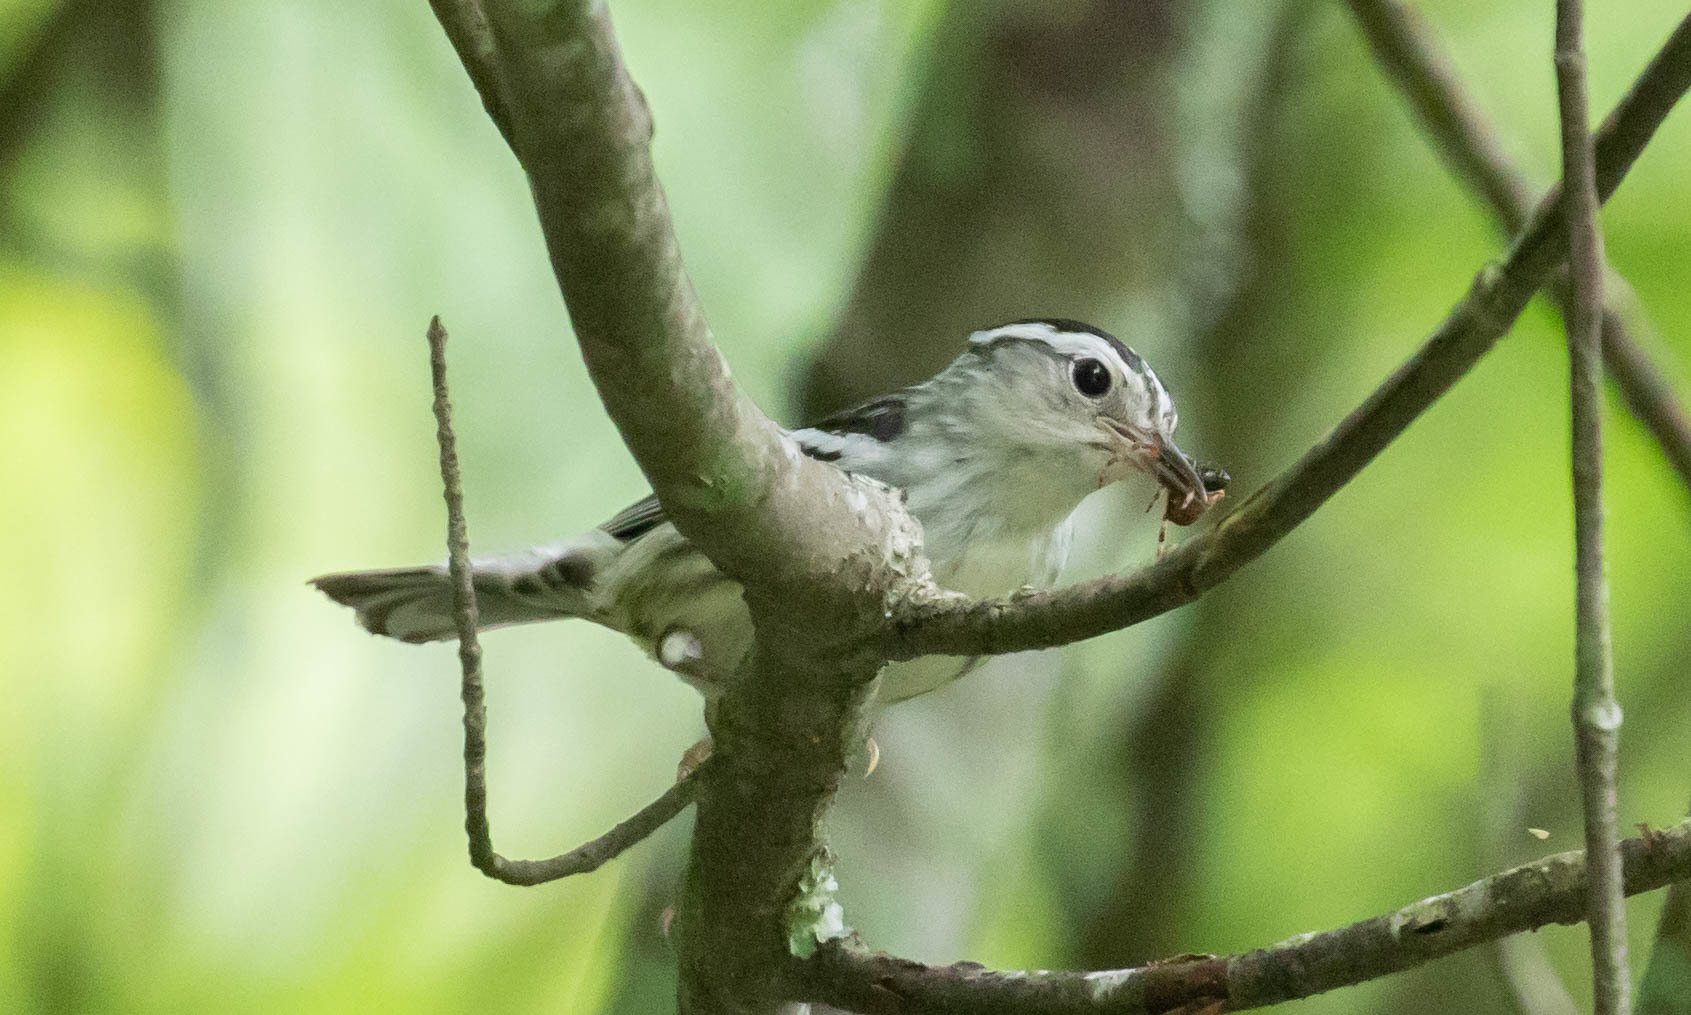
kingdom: Animalia
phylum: Chordata
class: Aves
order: Passeriformes
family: Parulidae
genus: Mniotilta
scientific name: Mniotilta varia
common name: Black-and-white warbler
